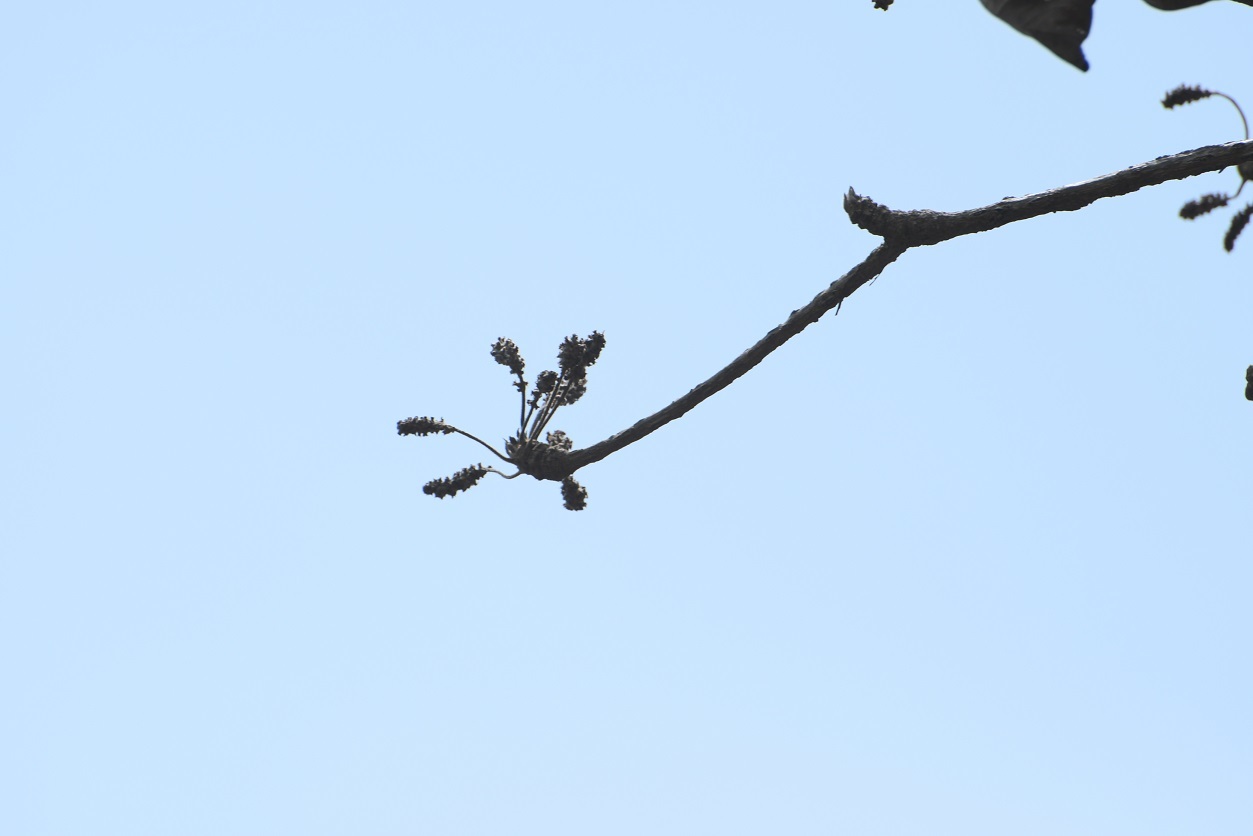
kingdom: Plantae
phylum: Tracheophyta
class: Magnoliopsida
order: Myrtales
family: Combretaceae
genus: Terminalia
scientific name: Terminalia macrostachya
